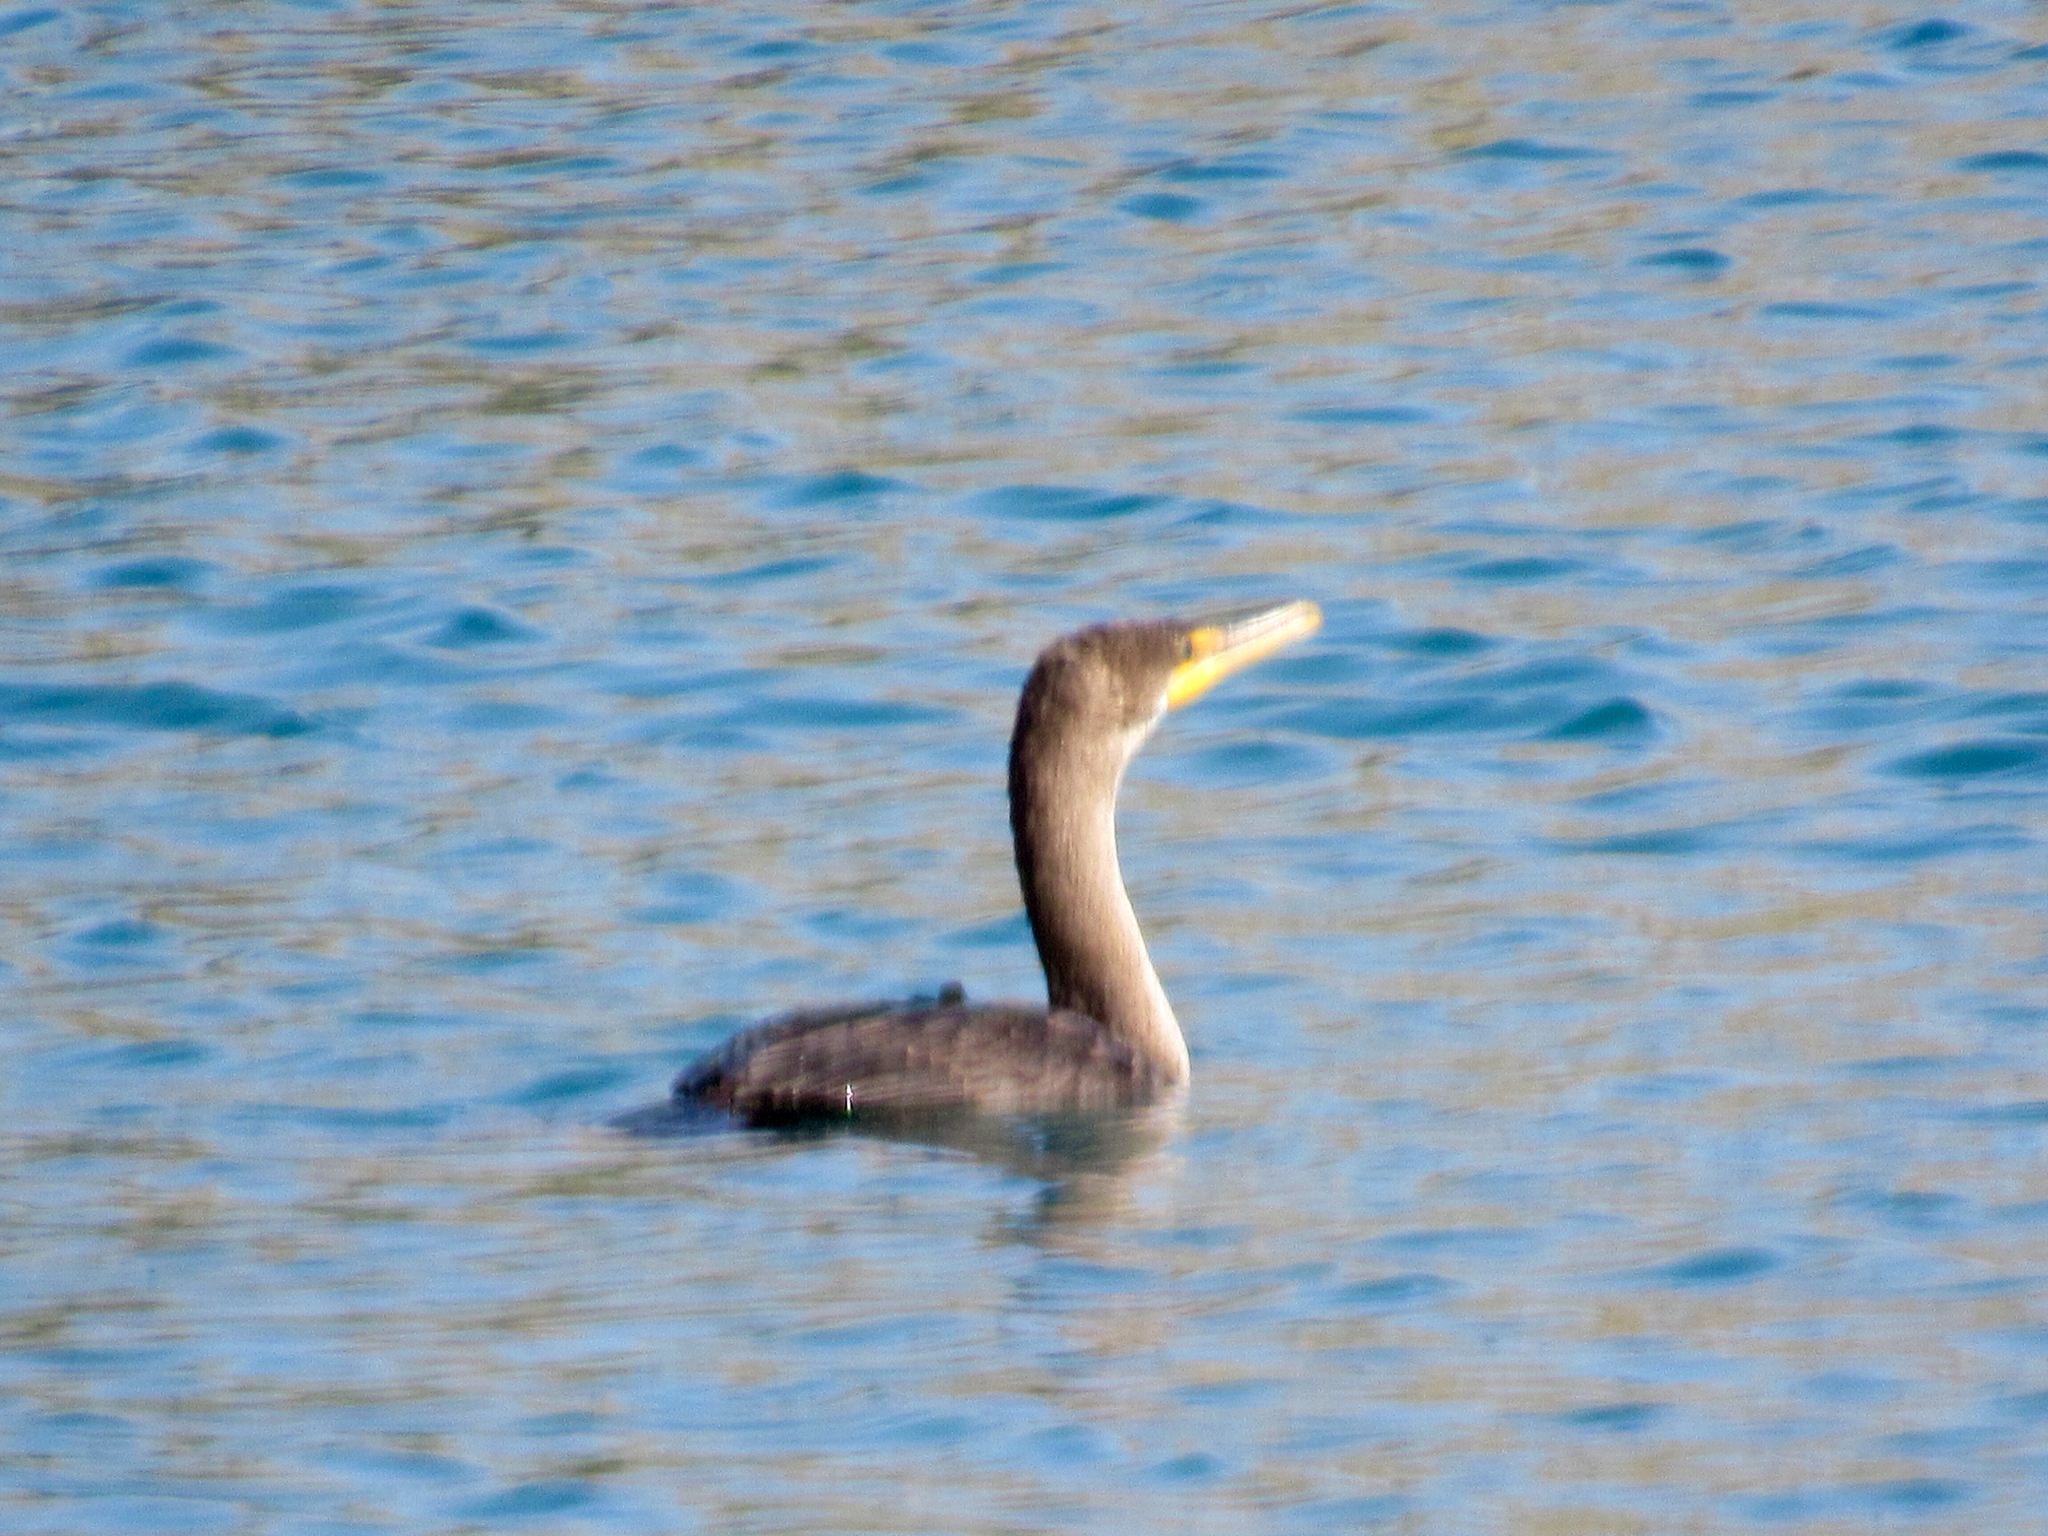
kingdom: Animalia
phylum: Chordata
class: Aves
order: Suliformes
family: Phalacrocoracidae
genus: Phalacrocorax
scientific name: Phalacrocorax auritus
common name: Double-crested cormorant
